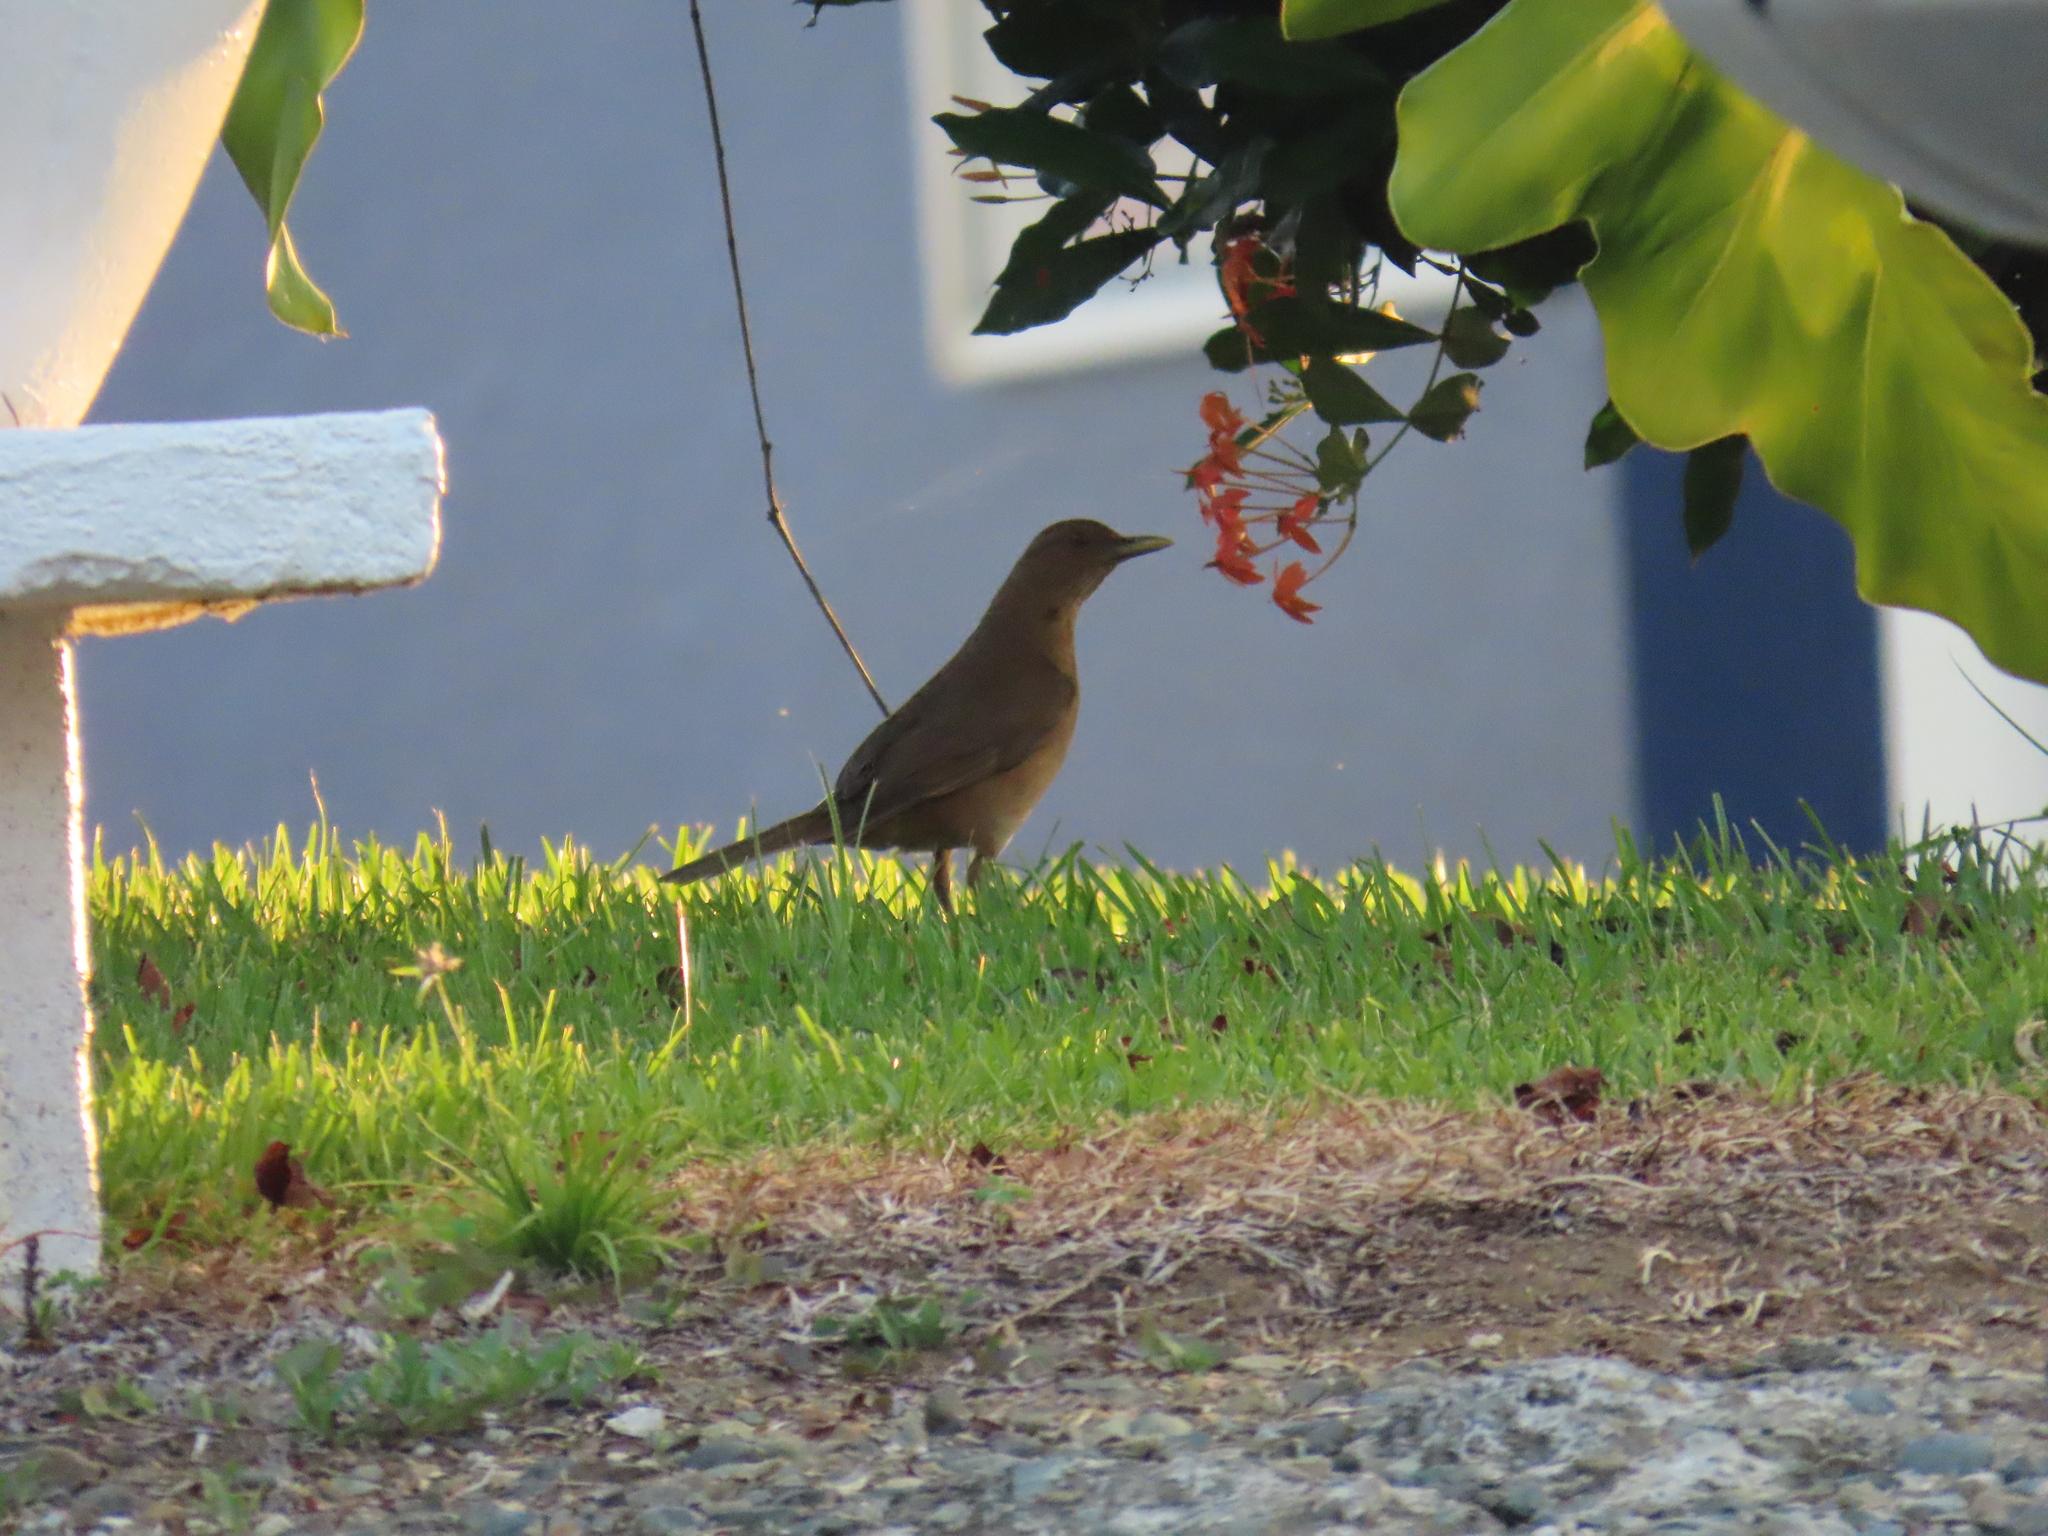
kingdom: Animalia
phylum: Chordata
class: Aves
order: Passeriformes
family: Turdidae
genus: Turdus
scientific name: Turdus grayi
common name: Clay-colored thrush
